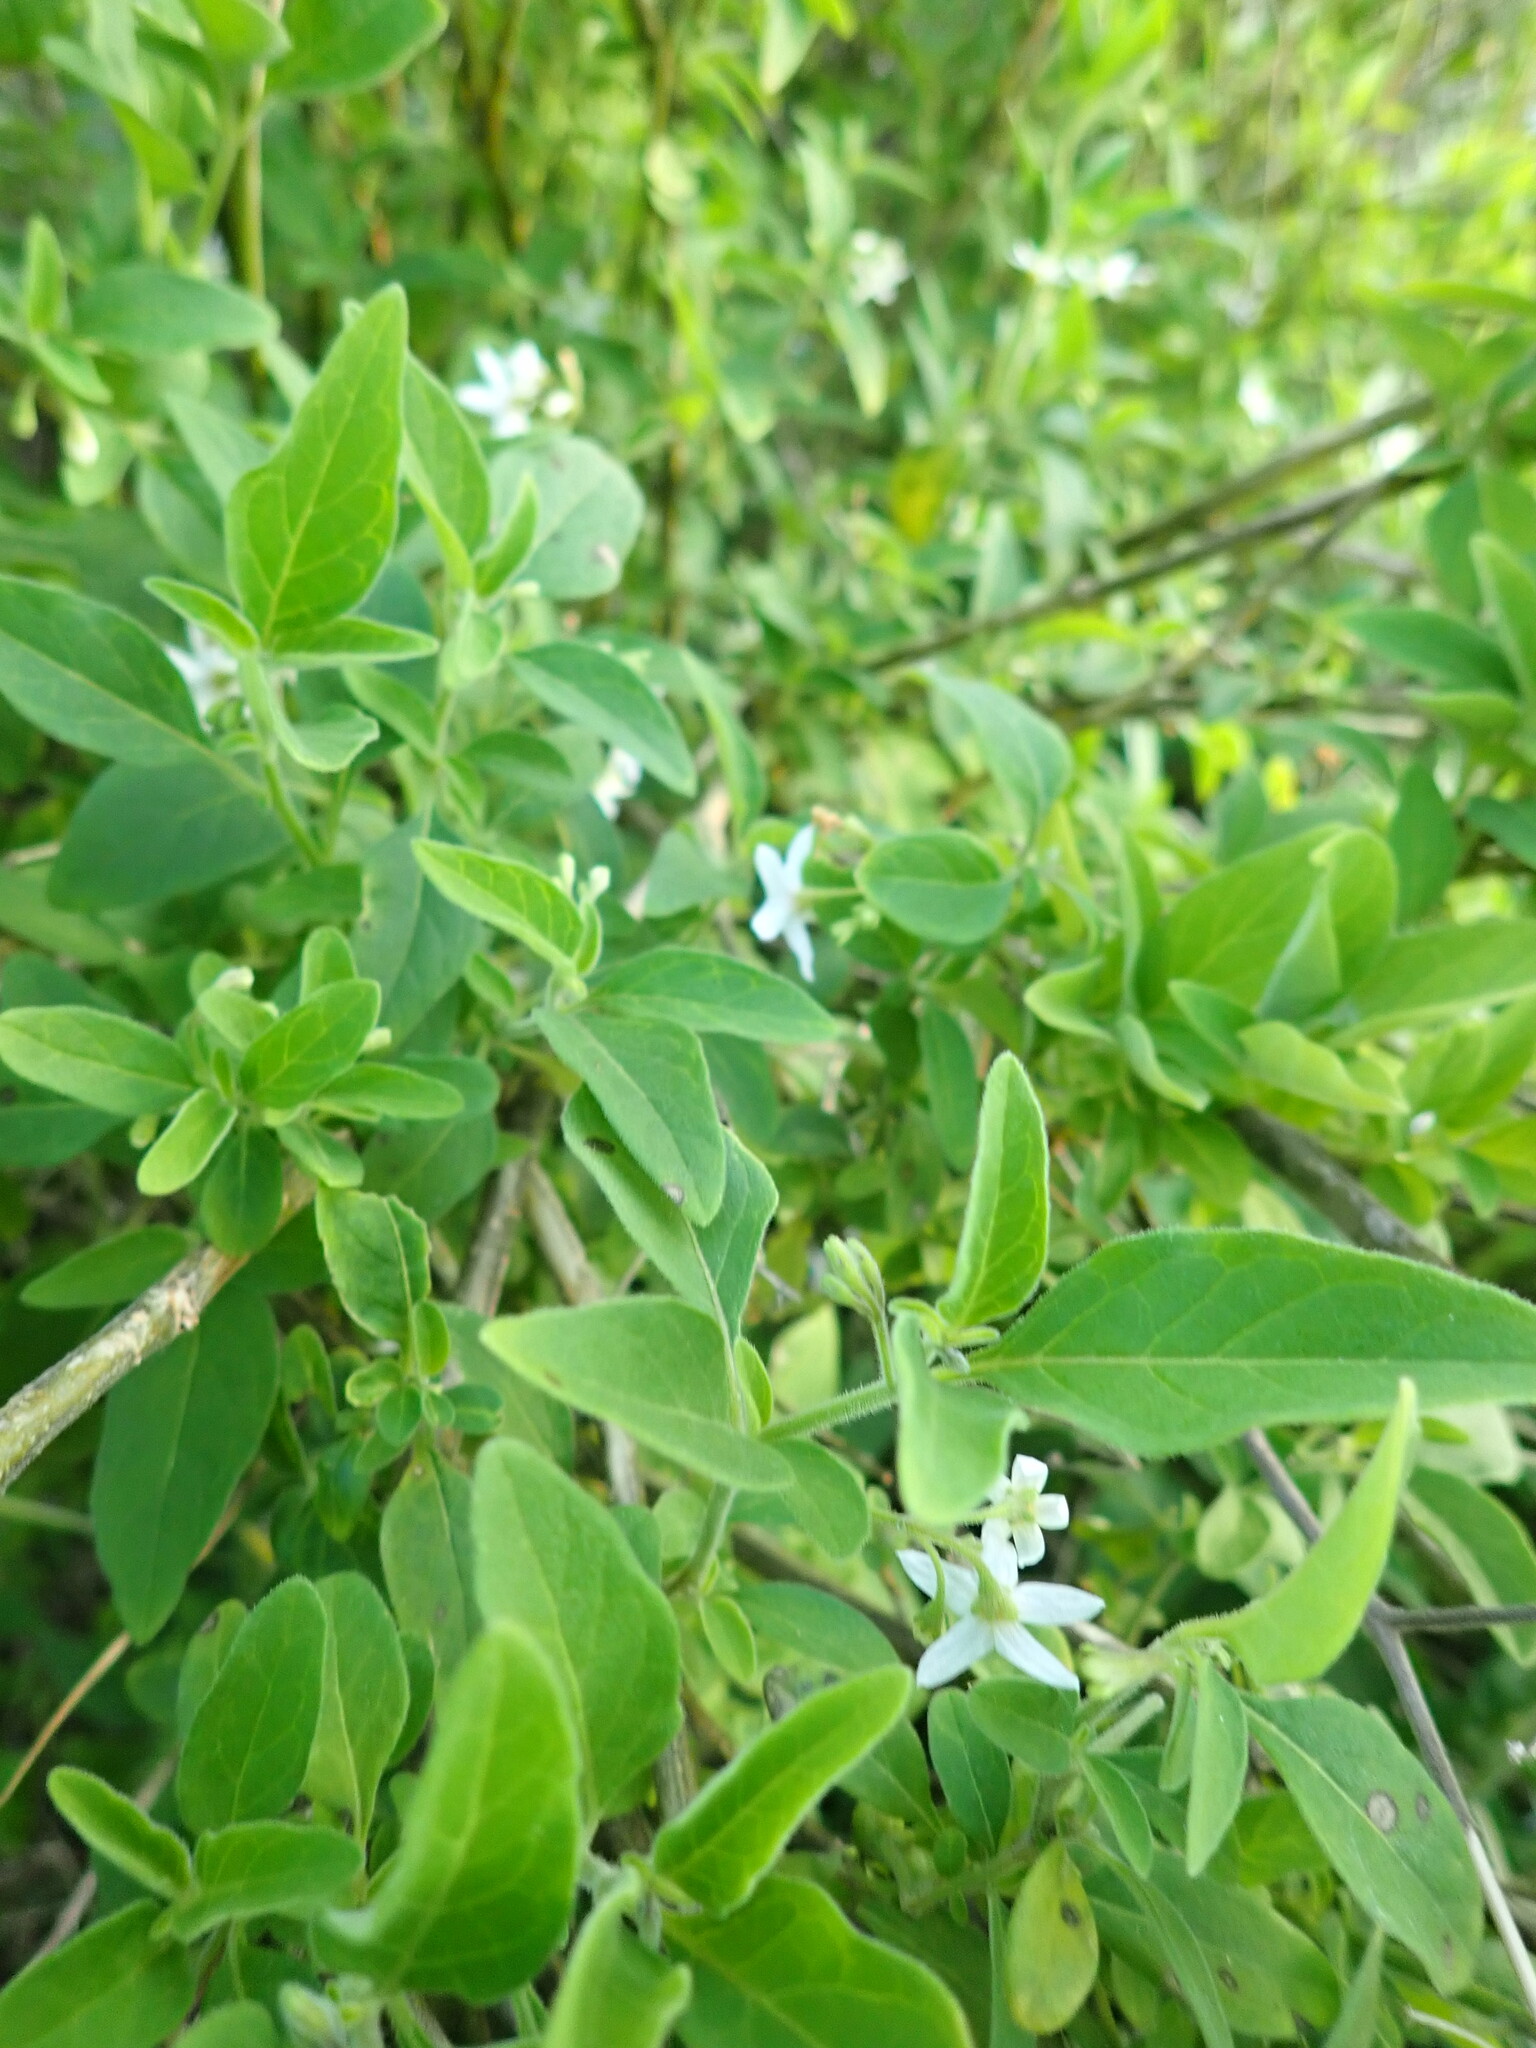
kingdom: Plantae
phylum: Tracheophyta
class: Magnoliopsida
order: Solanales
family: Solanaceae
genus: Solanum
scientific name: Solanum chenopodioides
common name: Tall nightshade
